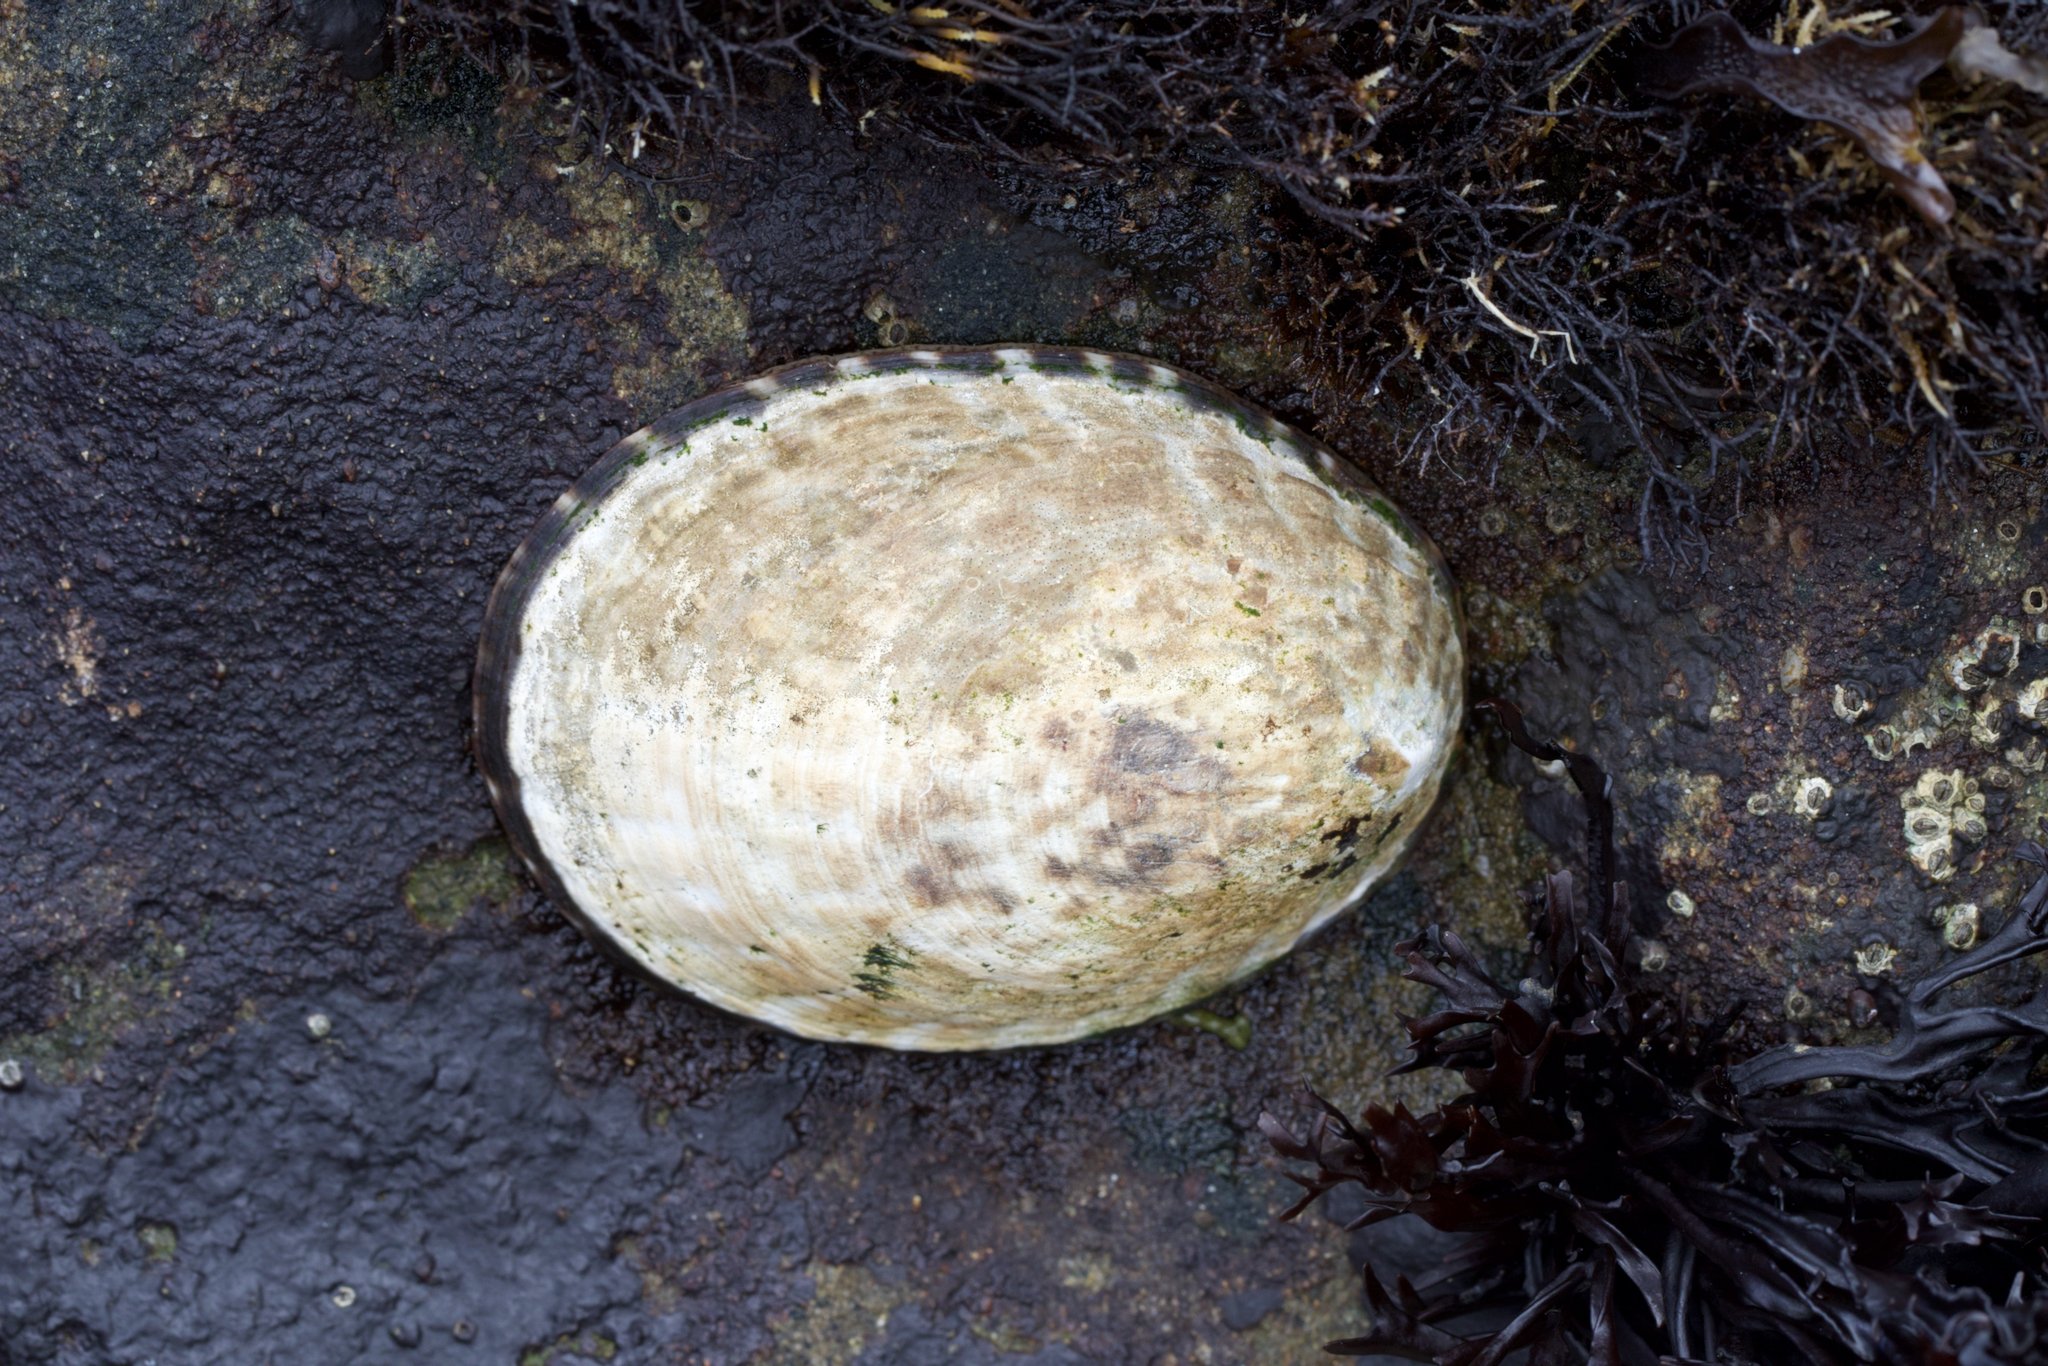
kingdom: Animalia
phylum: Mollusca
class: Gastropoda
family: Lottiidae
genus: Lottia
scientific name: Lottia gigantea
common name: Owl limpet
